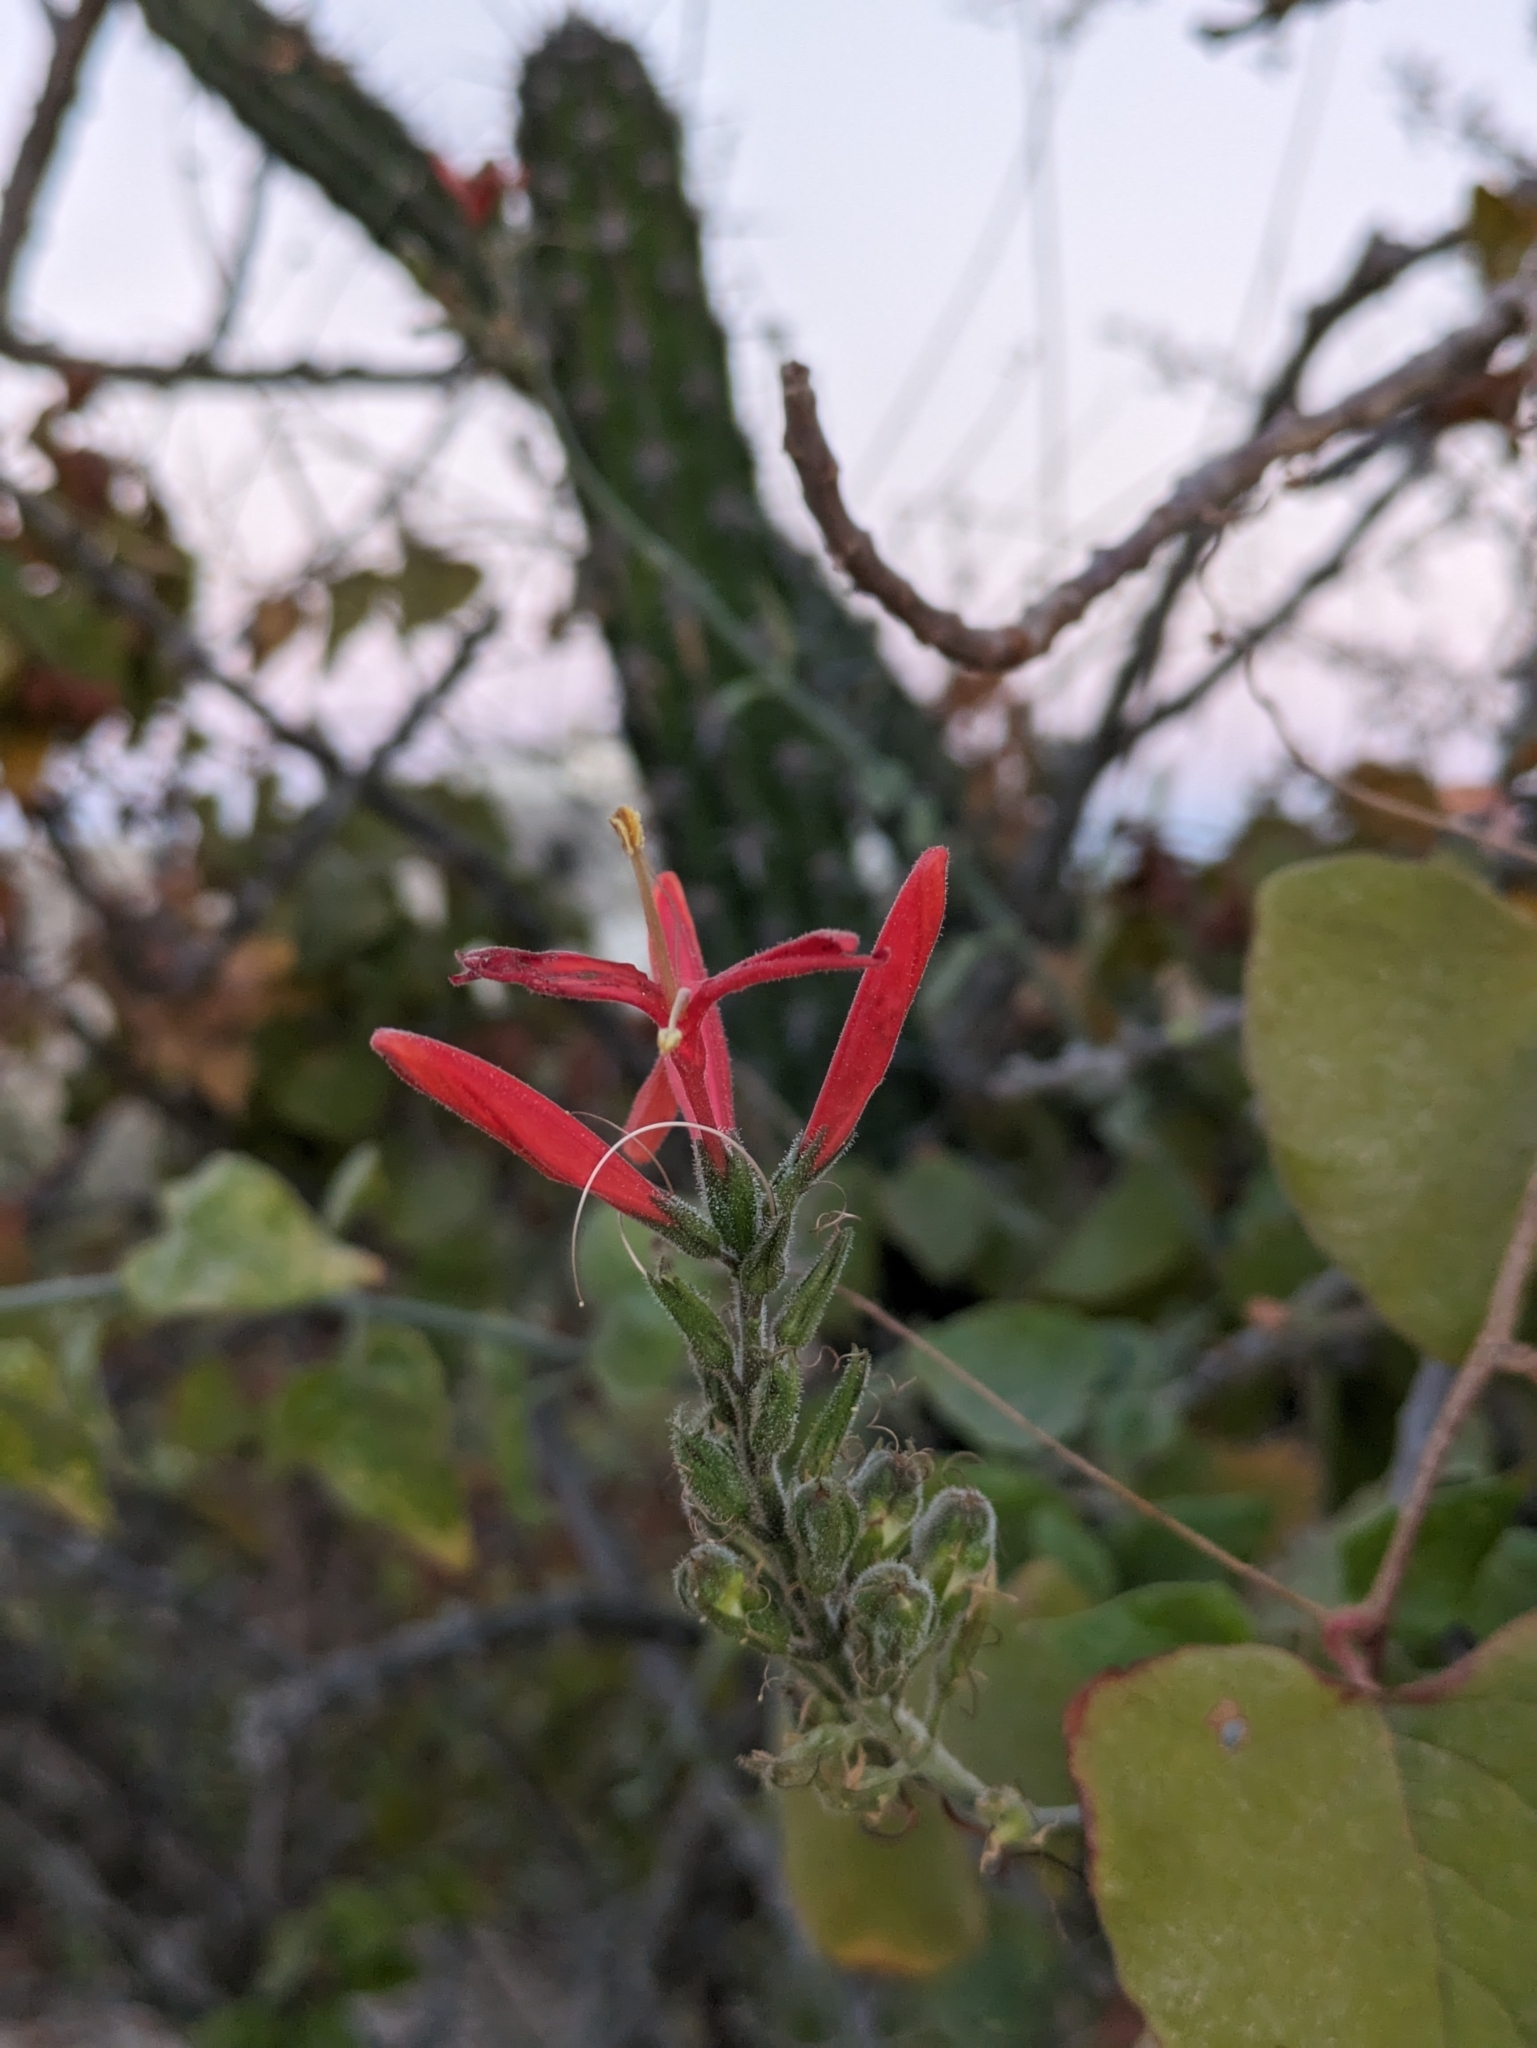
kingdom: Plantae
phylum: Tracheophyta
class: Magnoliopsida
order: Lamiales
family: Acanthaceae
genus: Justicia
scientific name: Justicia californica
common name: Chuparosa-honeysuckle
